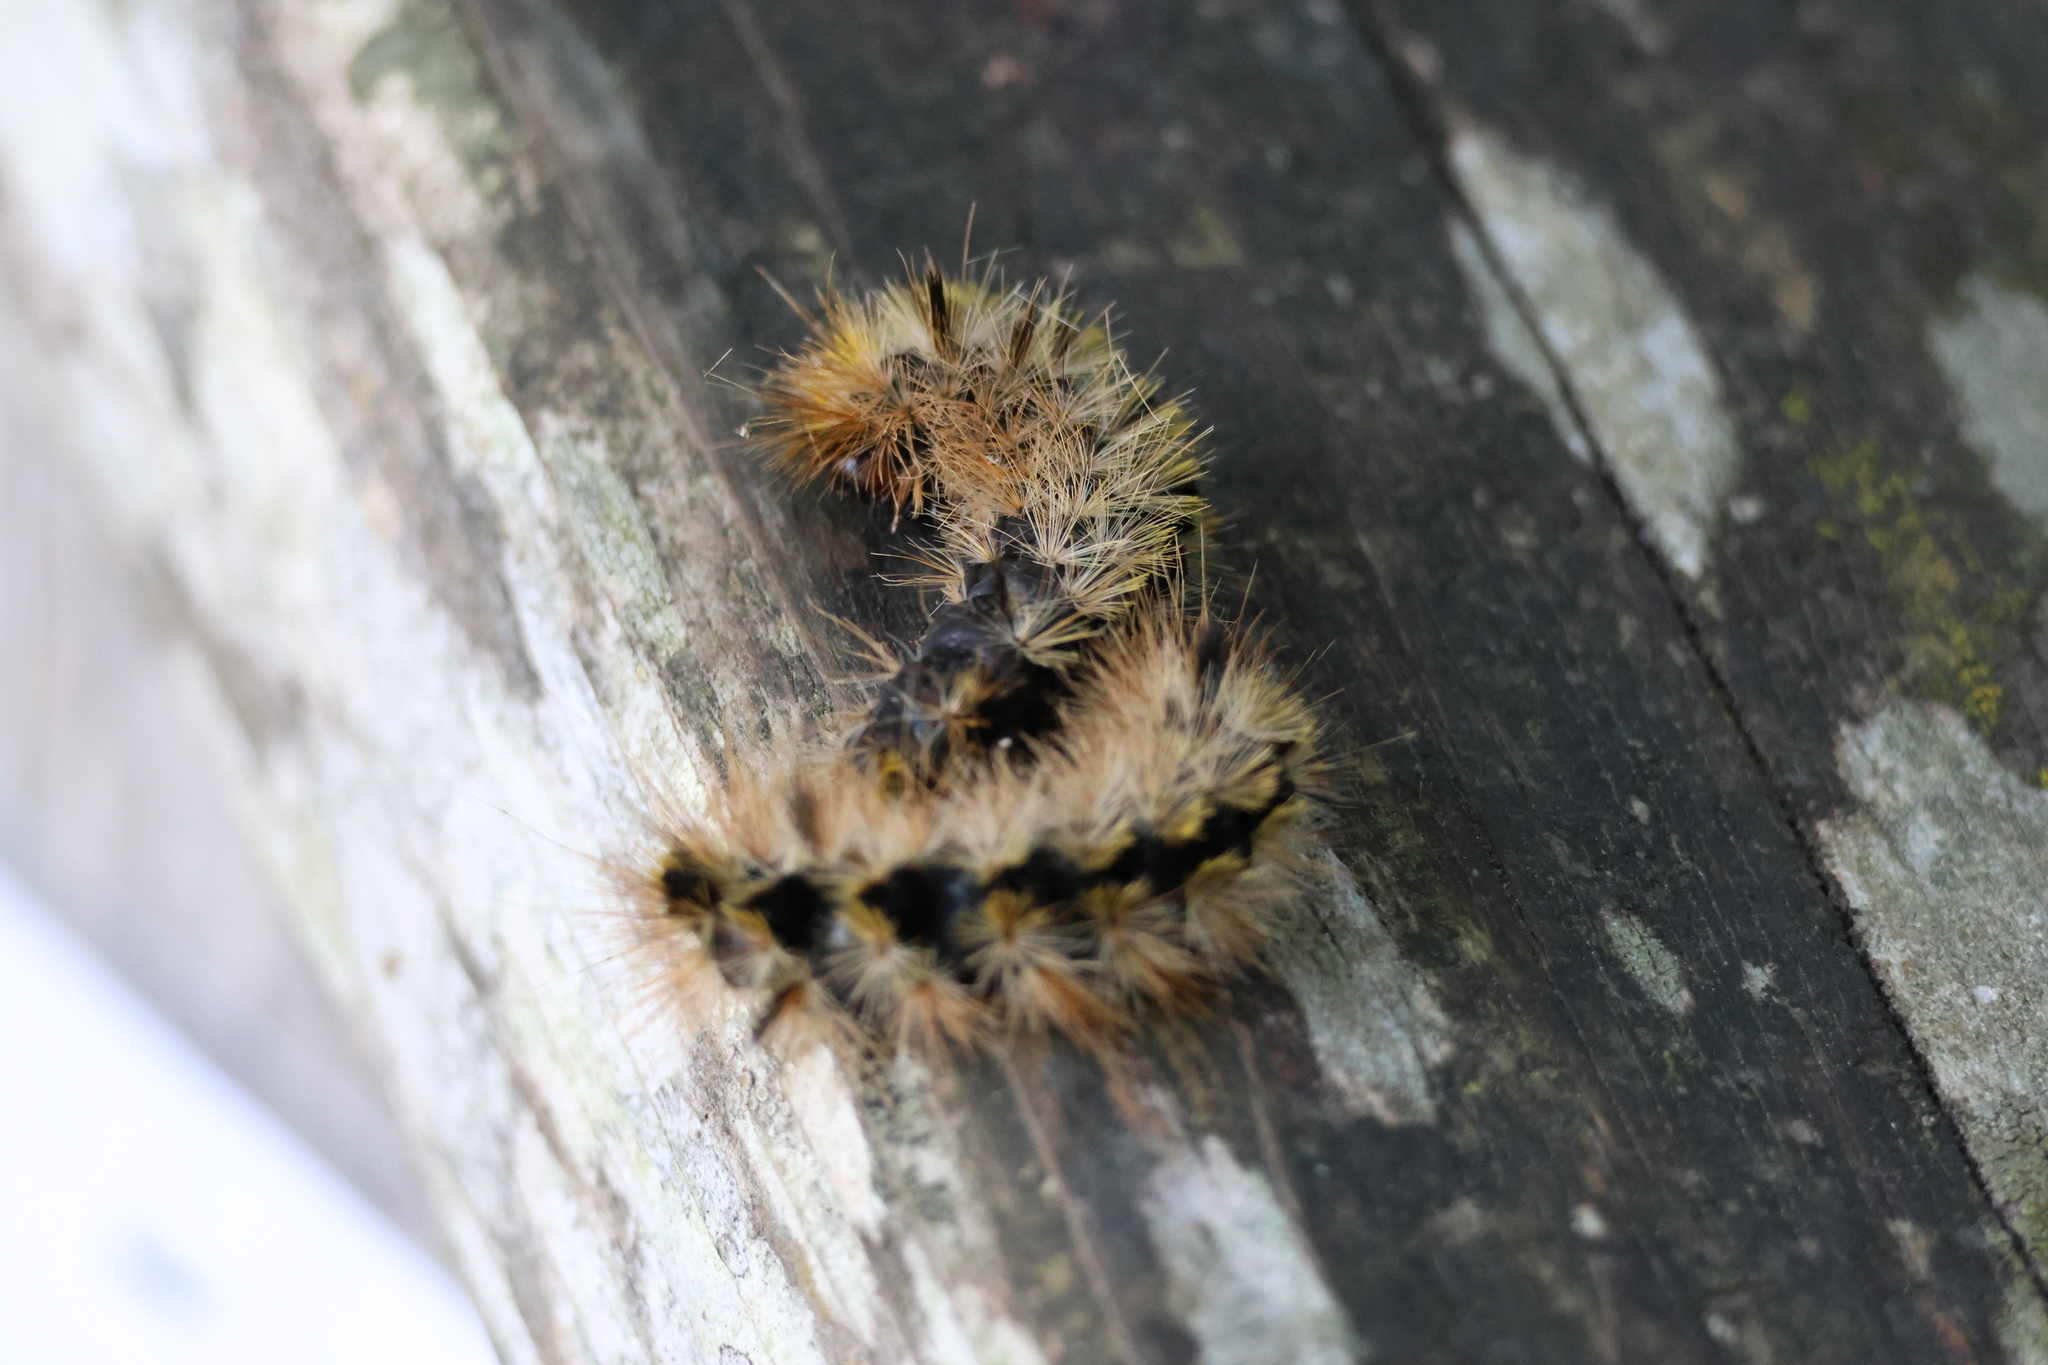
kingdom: Animalia
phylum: Arthropoda
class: Insecta
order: Lepidoptera
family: Erebidae
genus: Lophocampa
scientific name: Lophocampa argentata
